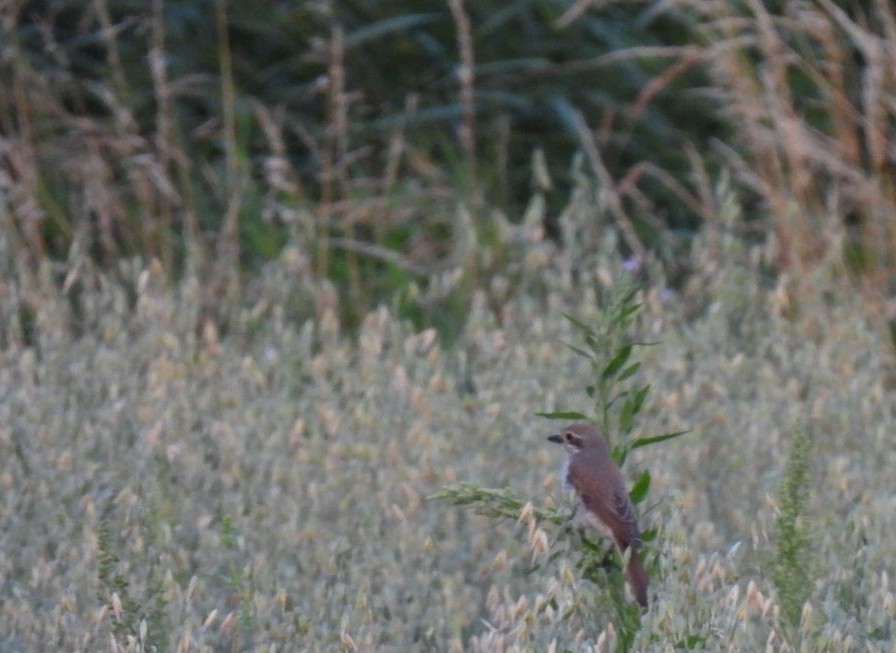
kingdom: Animalia
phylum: Chordata
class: Aves
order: Passeriformes
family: Laniidae
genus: Lanius
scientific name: Lanius collurio
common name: Red-backed shrike
